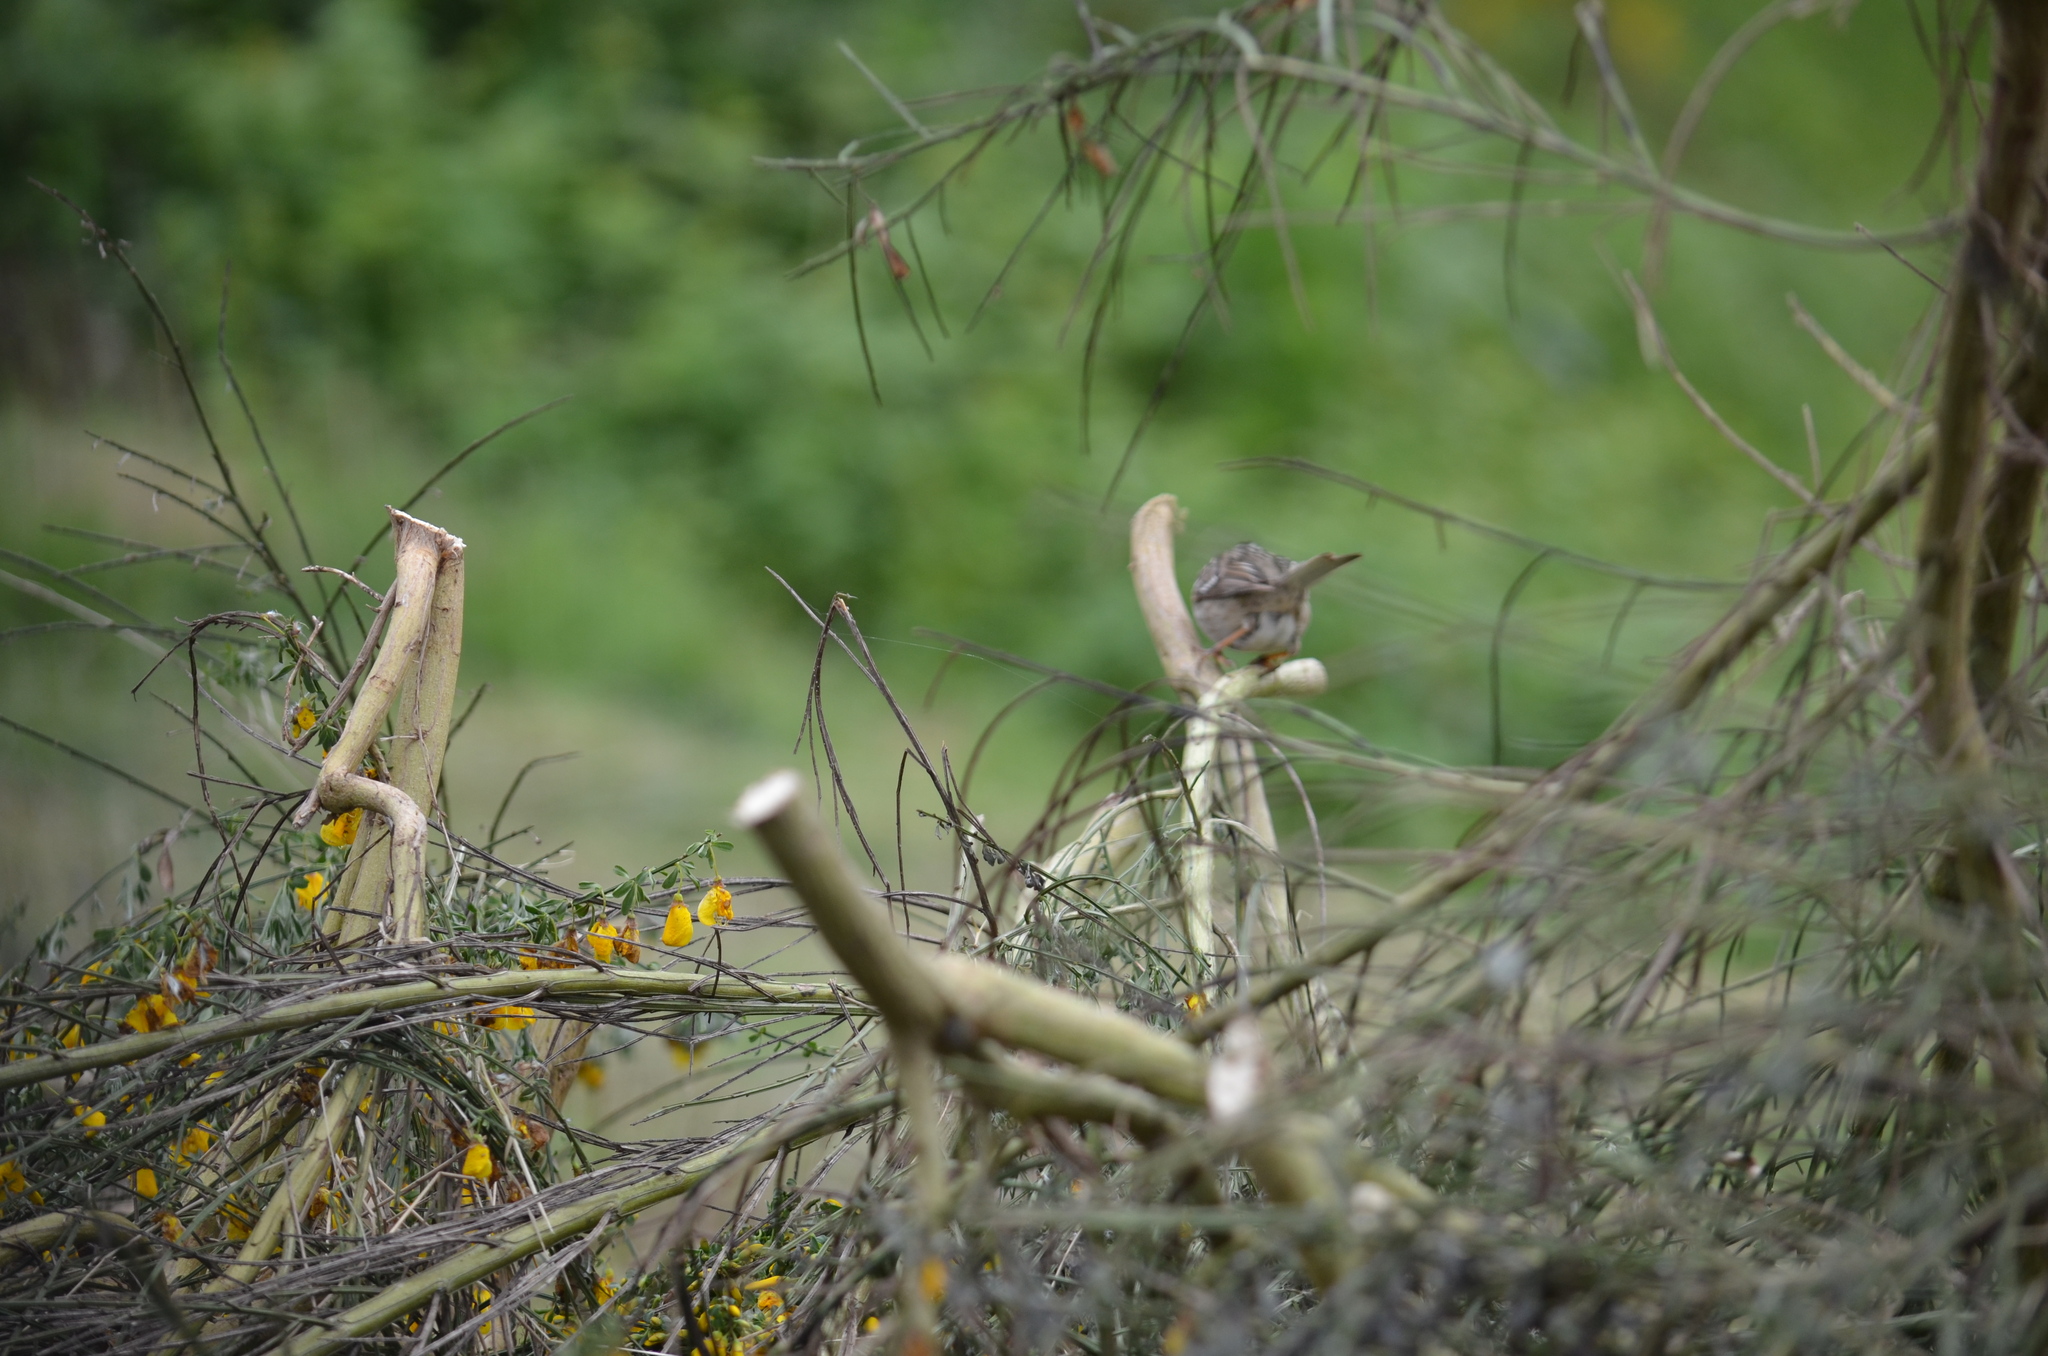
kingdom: Animalia
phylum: Chordata
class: Aves
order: Passeriformes
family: Passerellidae
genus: Zonotrichia
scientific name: Zonotrichia leucophrys
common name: White-crowned sparrow
